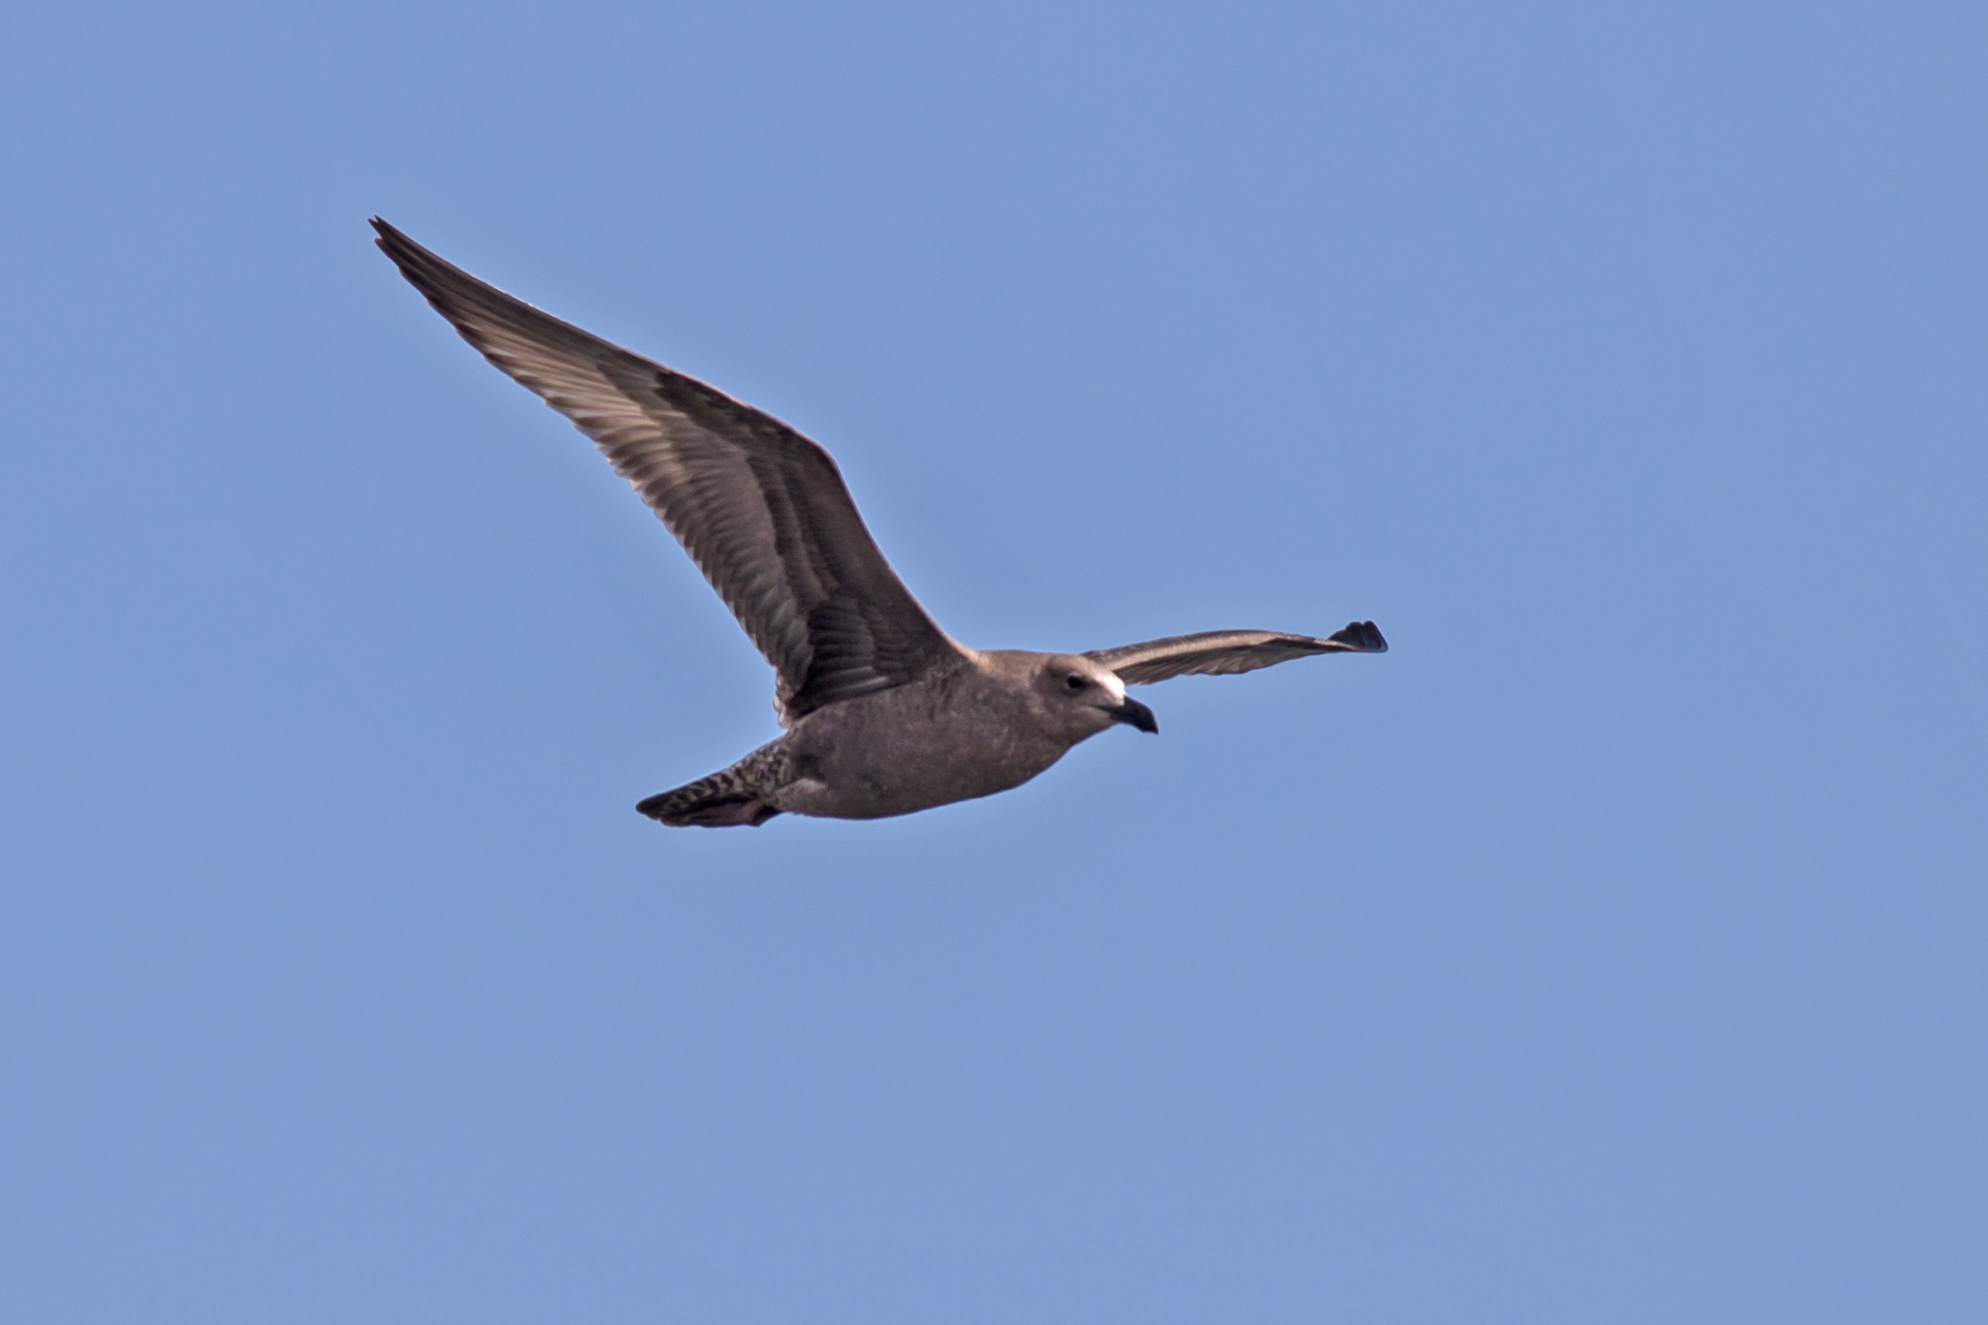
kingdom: Animalia
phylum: Chordata
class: Aves
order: Charadriiformes
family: Laridae
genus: Larus
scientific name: Larus argentatus
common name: Herring gull
